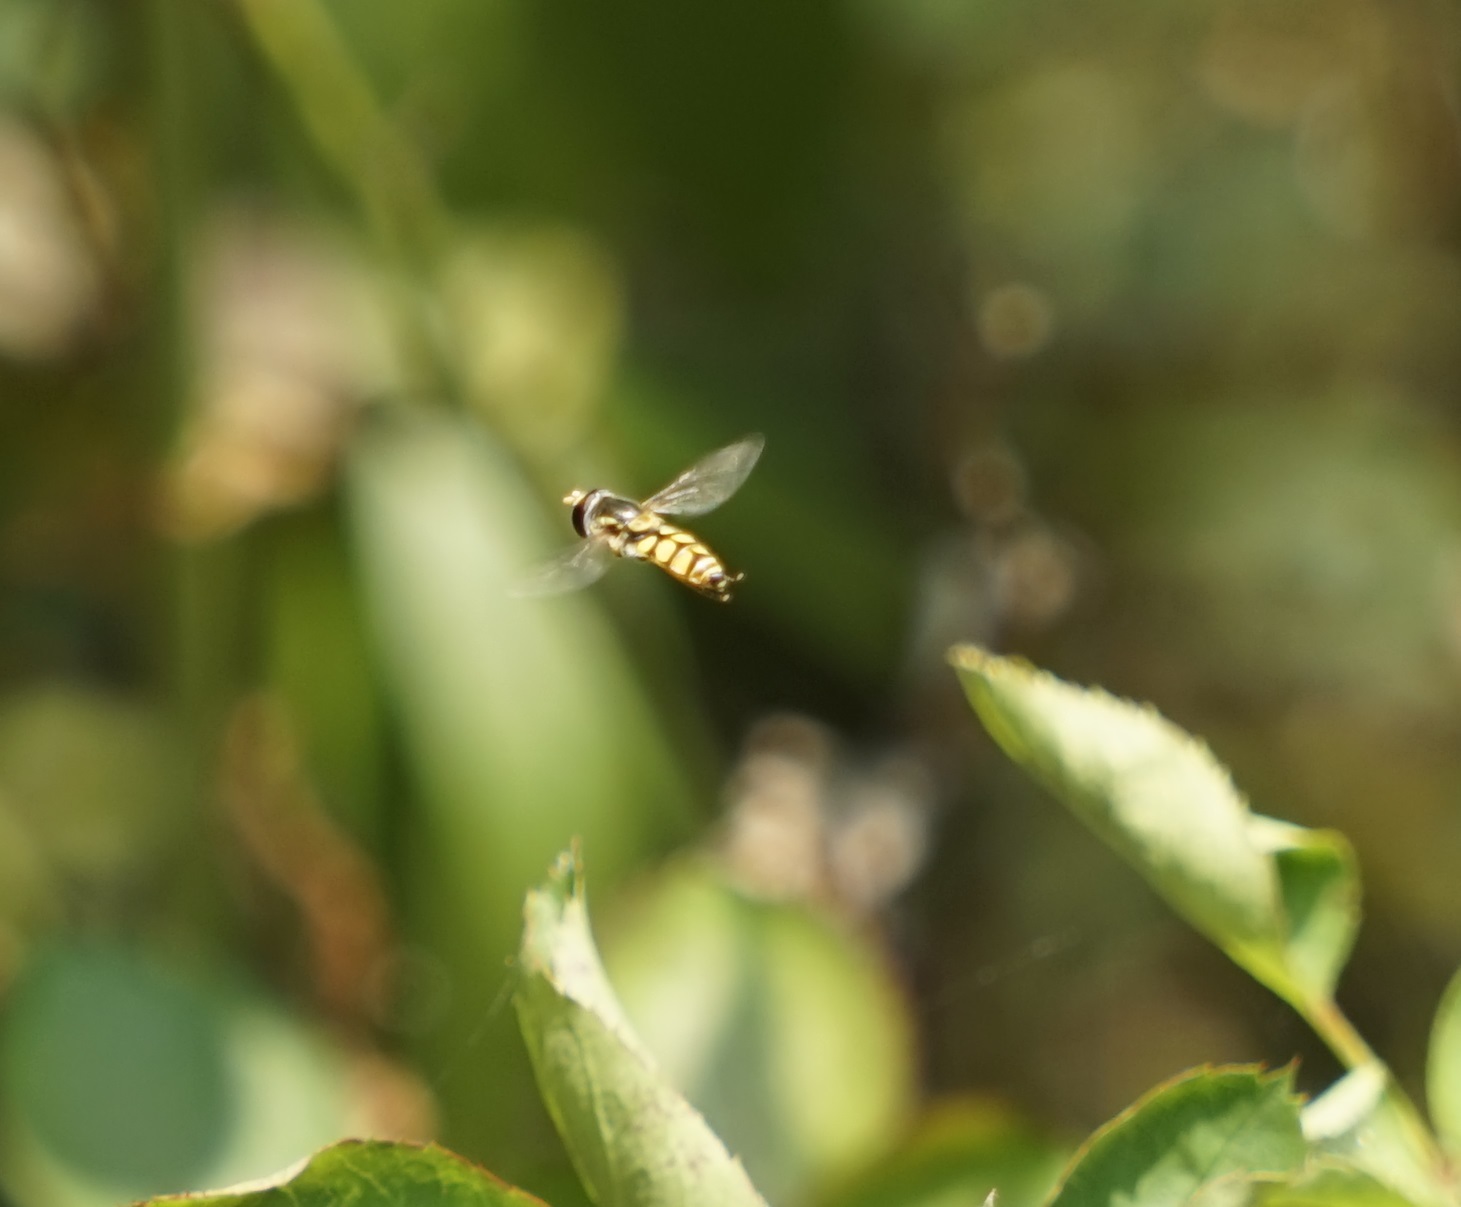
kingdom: Animalia
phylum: Arthropoda
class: Insecta
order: Diptera
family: Syrphidae
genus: Simosyrphus
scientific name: Simosyrphus grandicornis
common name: Hoverfly
